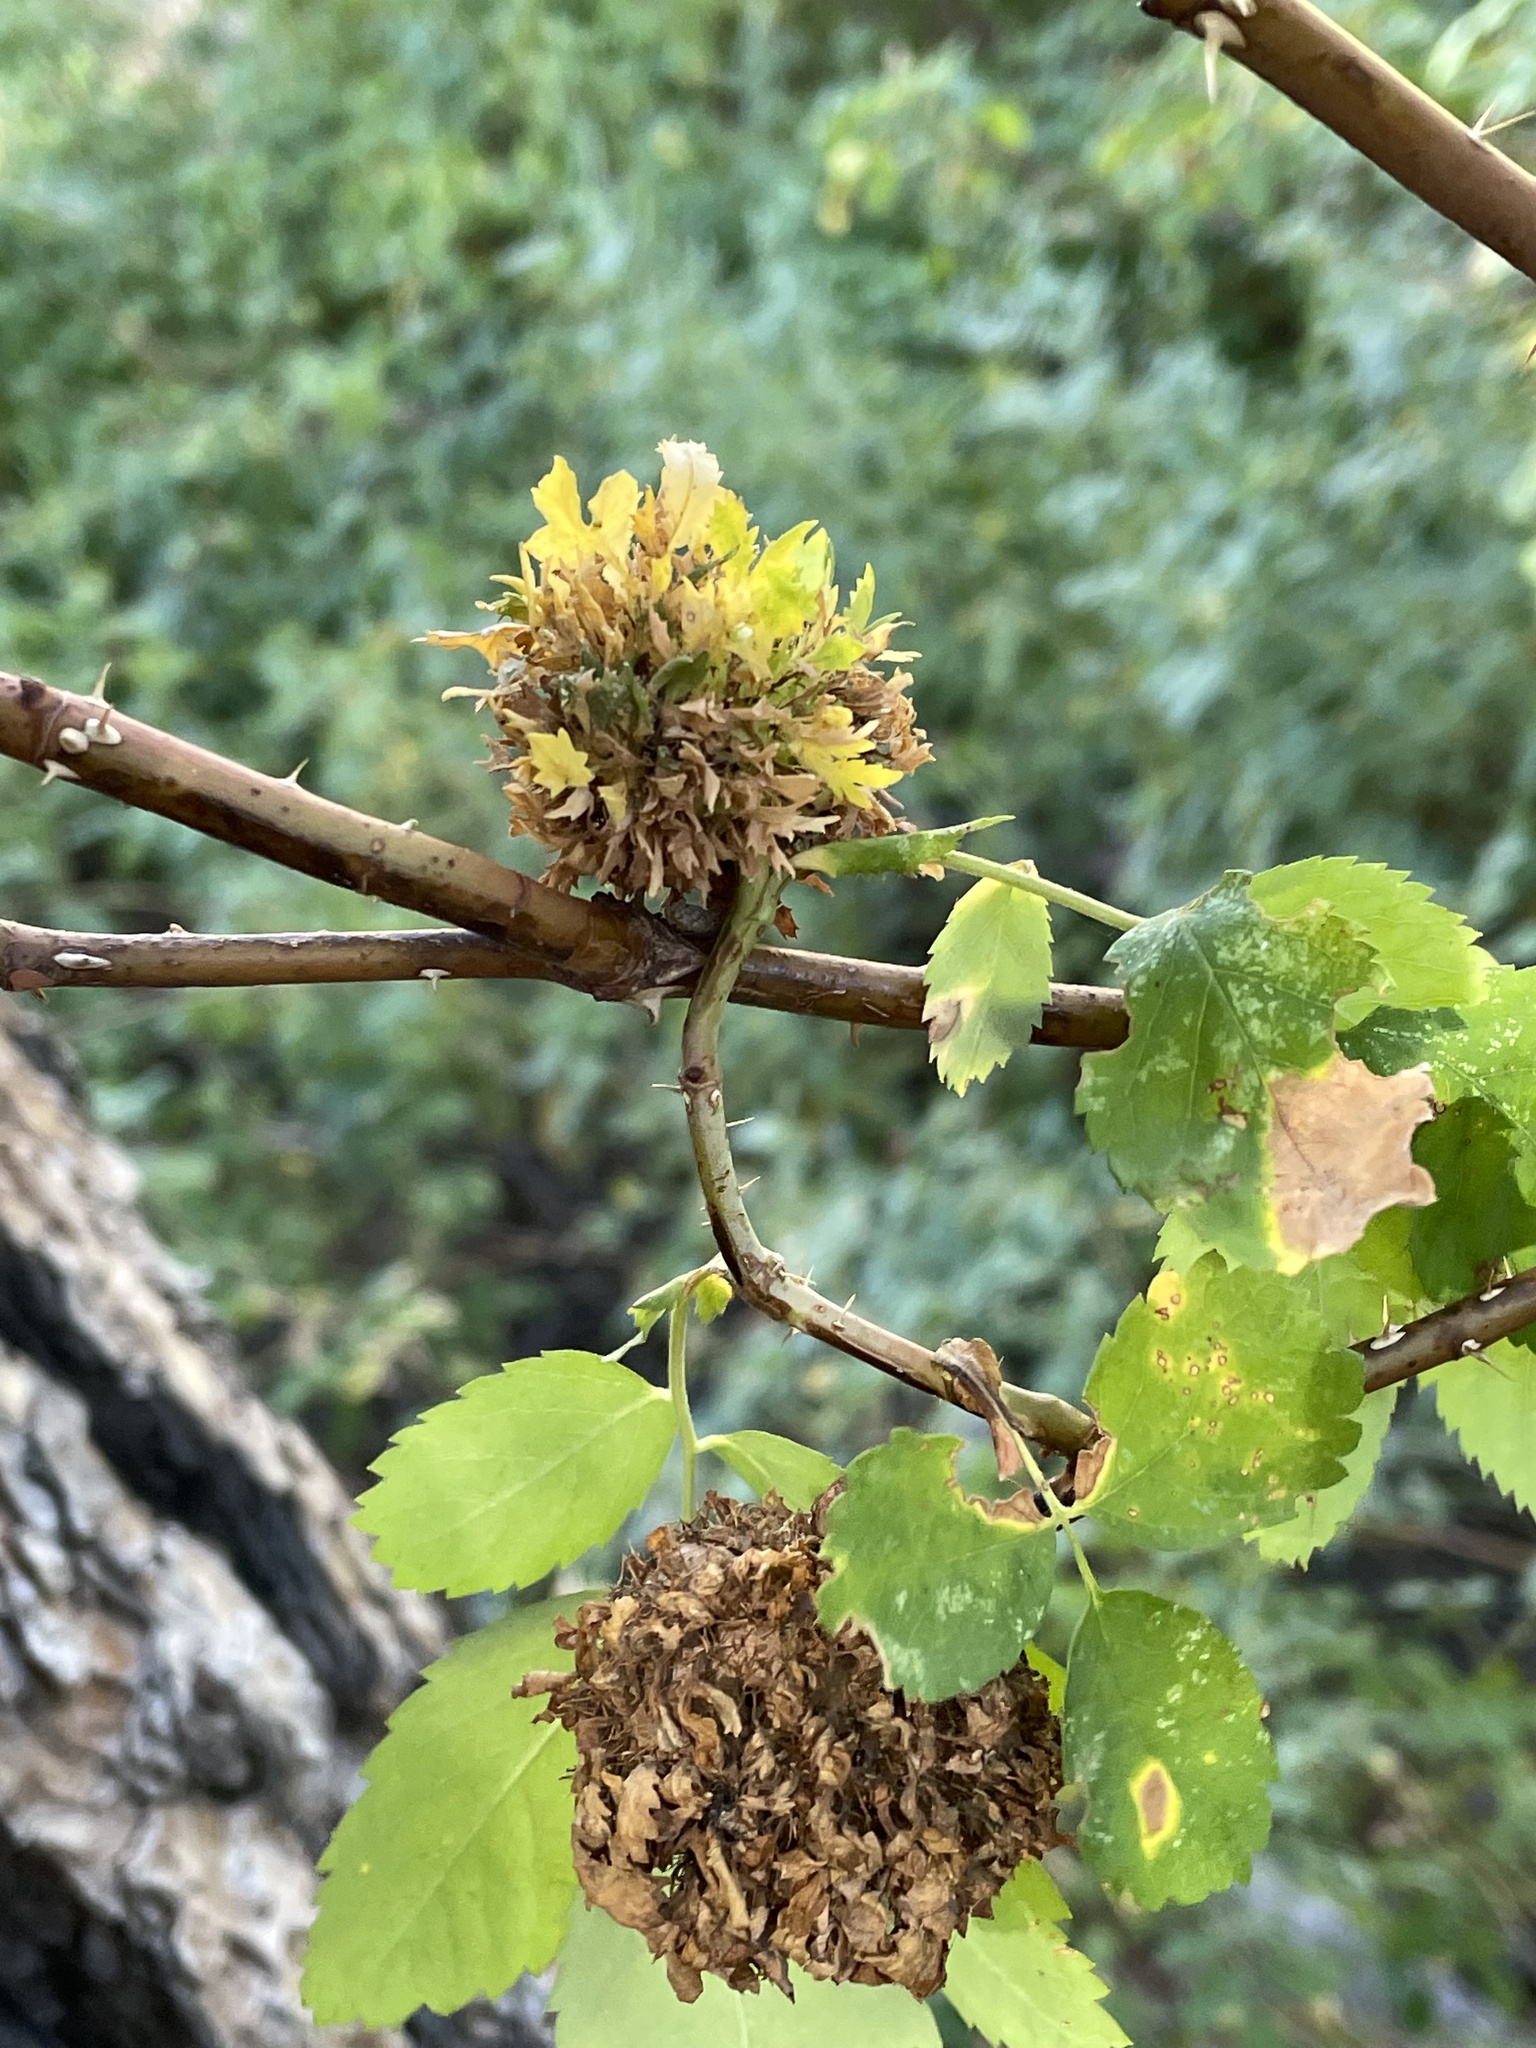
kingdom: Animalia
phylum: Arthropoda
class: Insecta
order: Hymenoptera
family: Cynipidae
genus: Diplolepis
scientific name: Diplolepis californica
